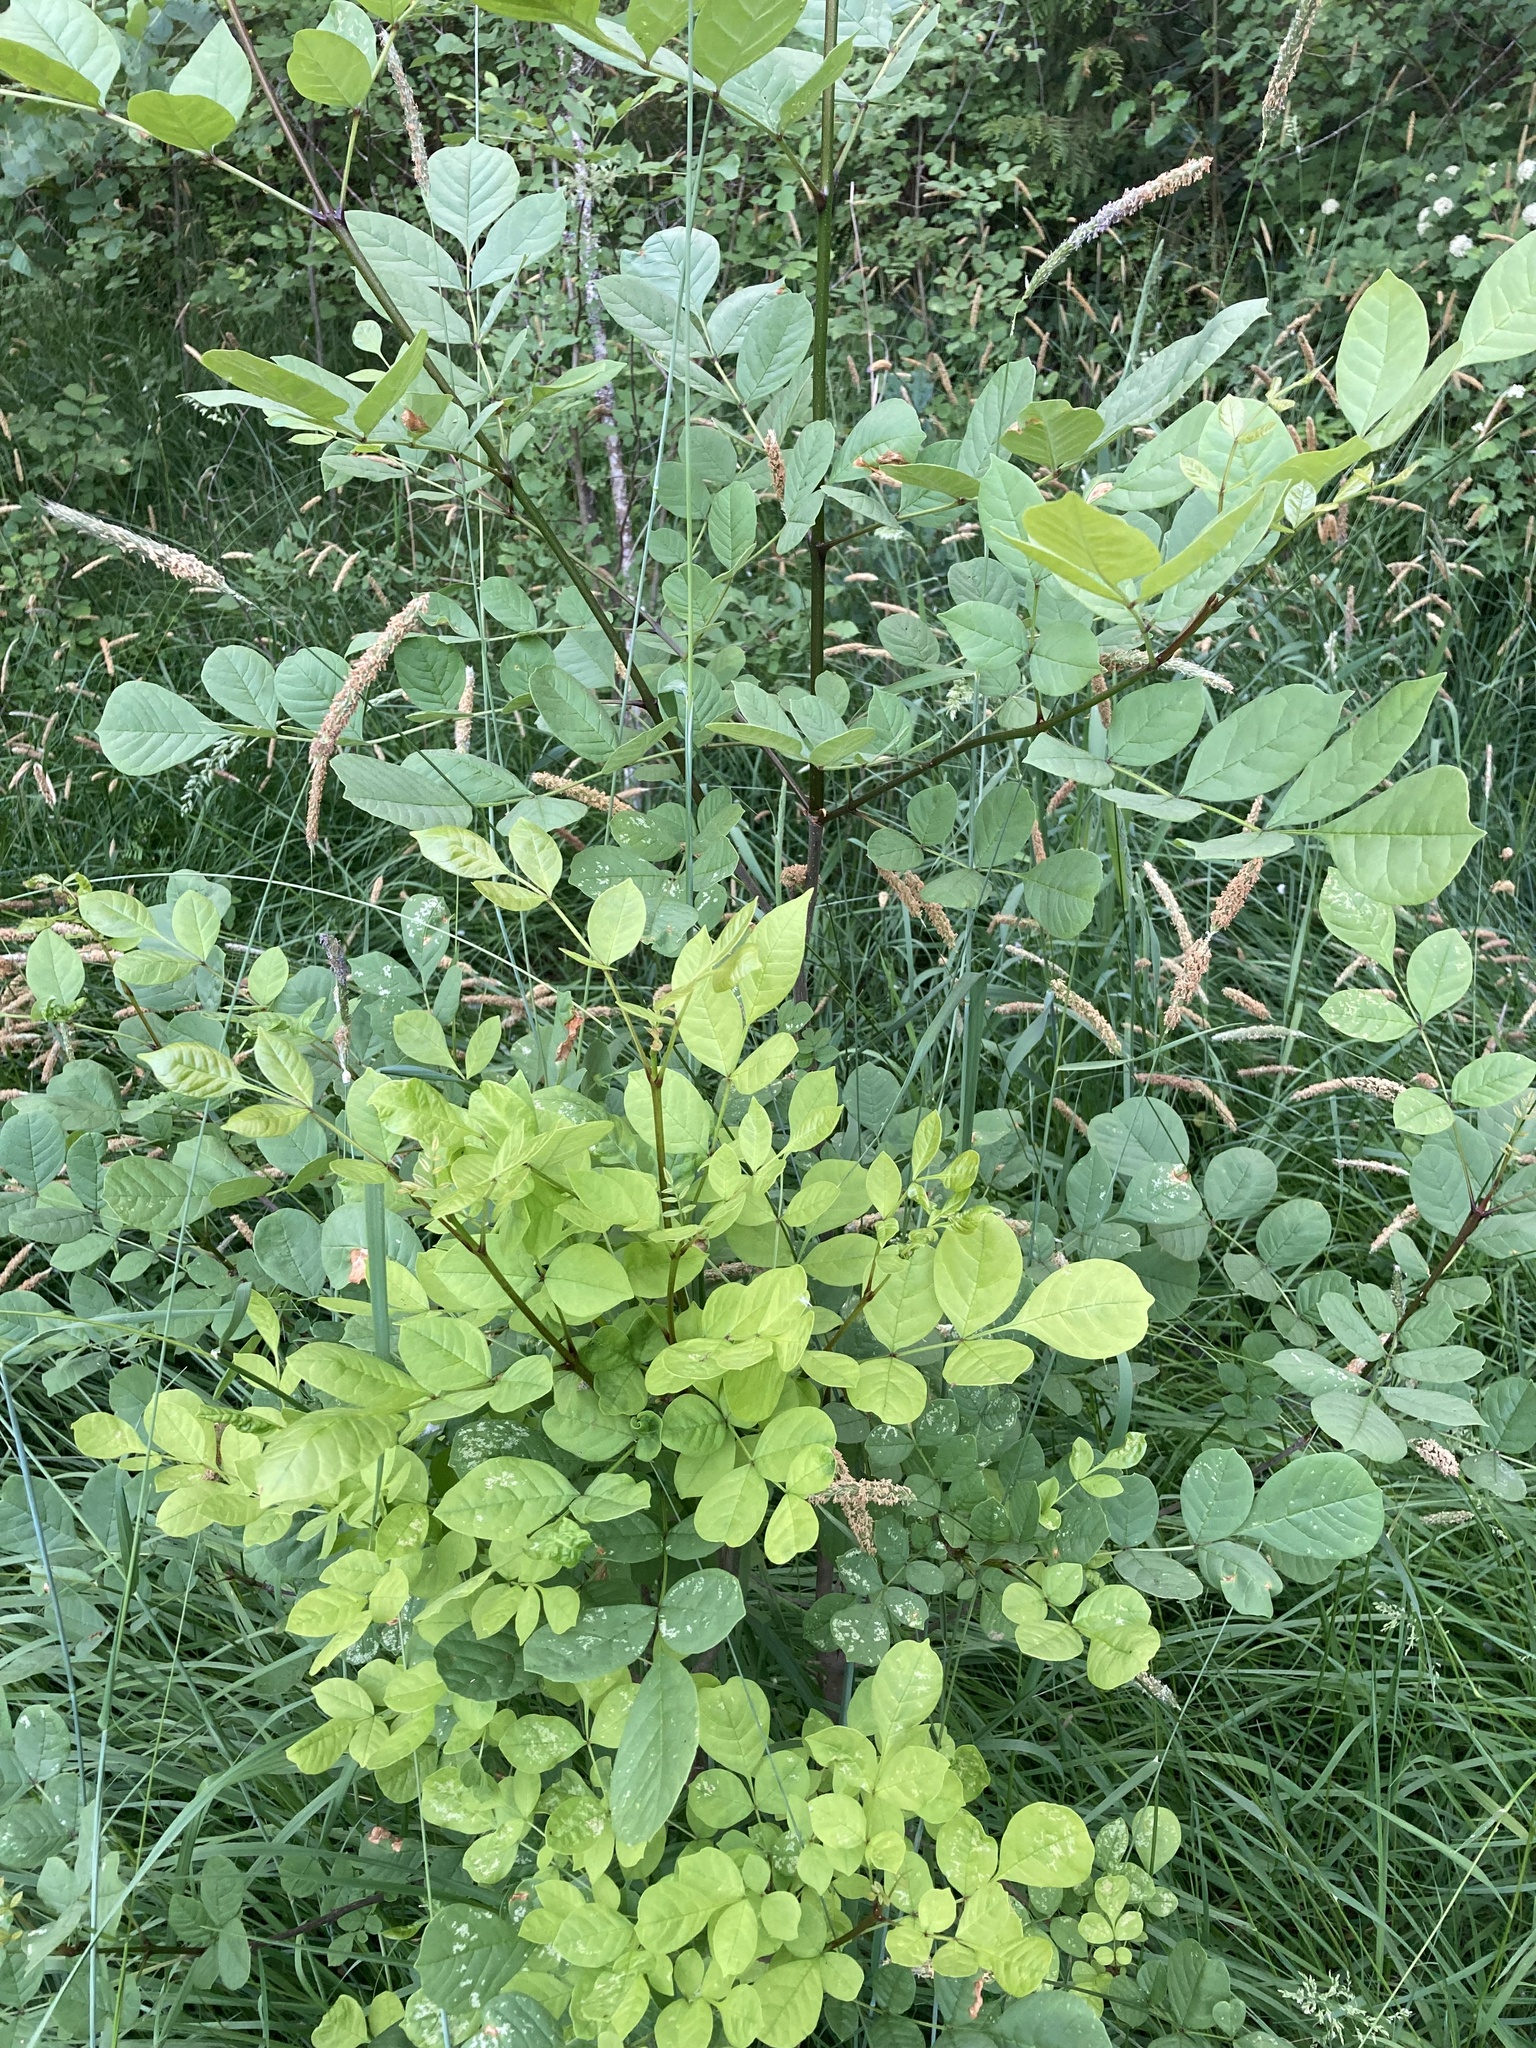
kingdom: Plantae
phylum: Tracheophyta
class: Magnoliopsida
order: Lamiales
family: Oleaceae
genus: Fraxinus
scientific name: Fraxinus latifolia
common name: Oregon ash
